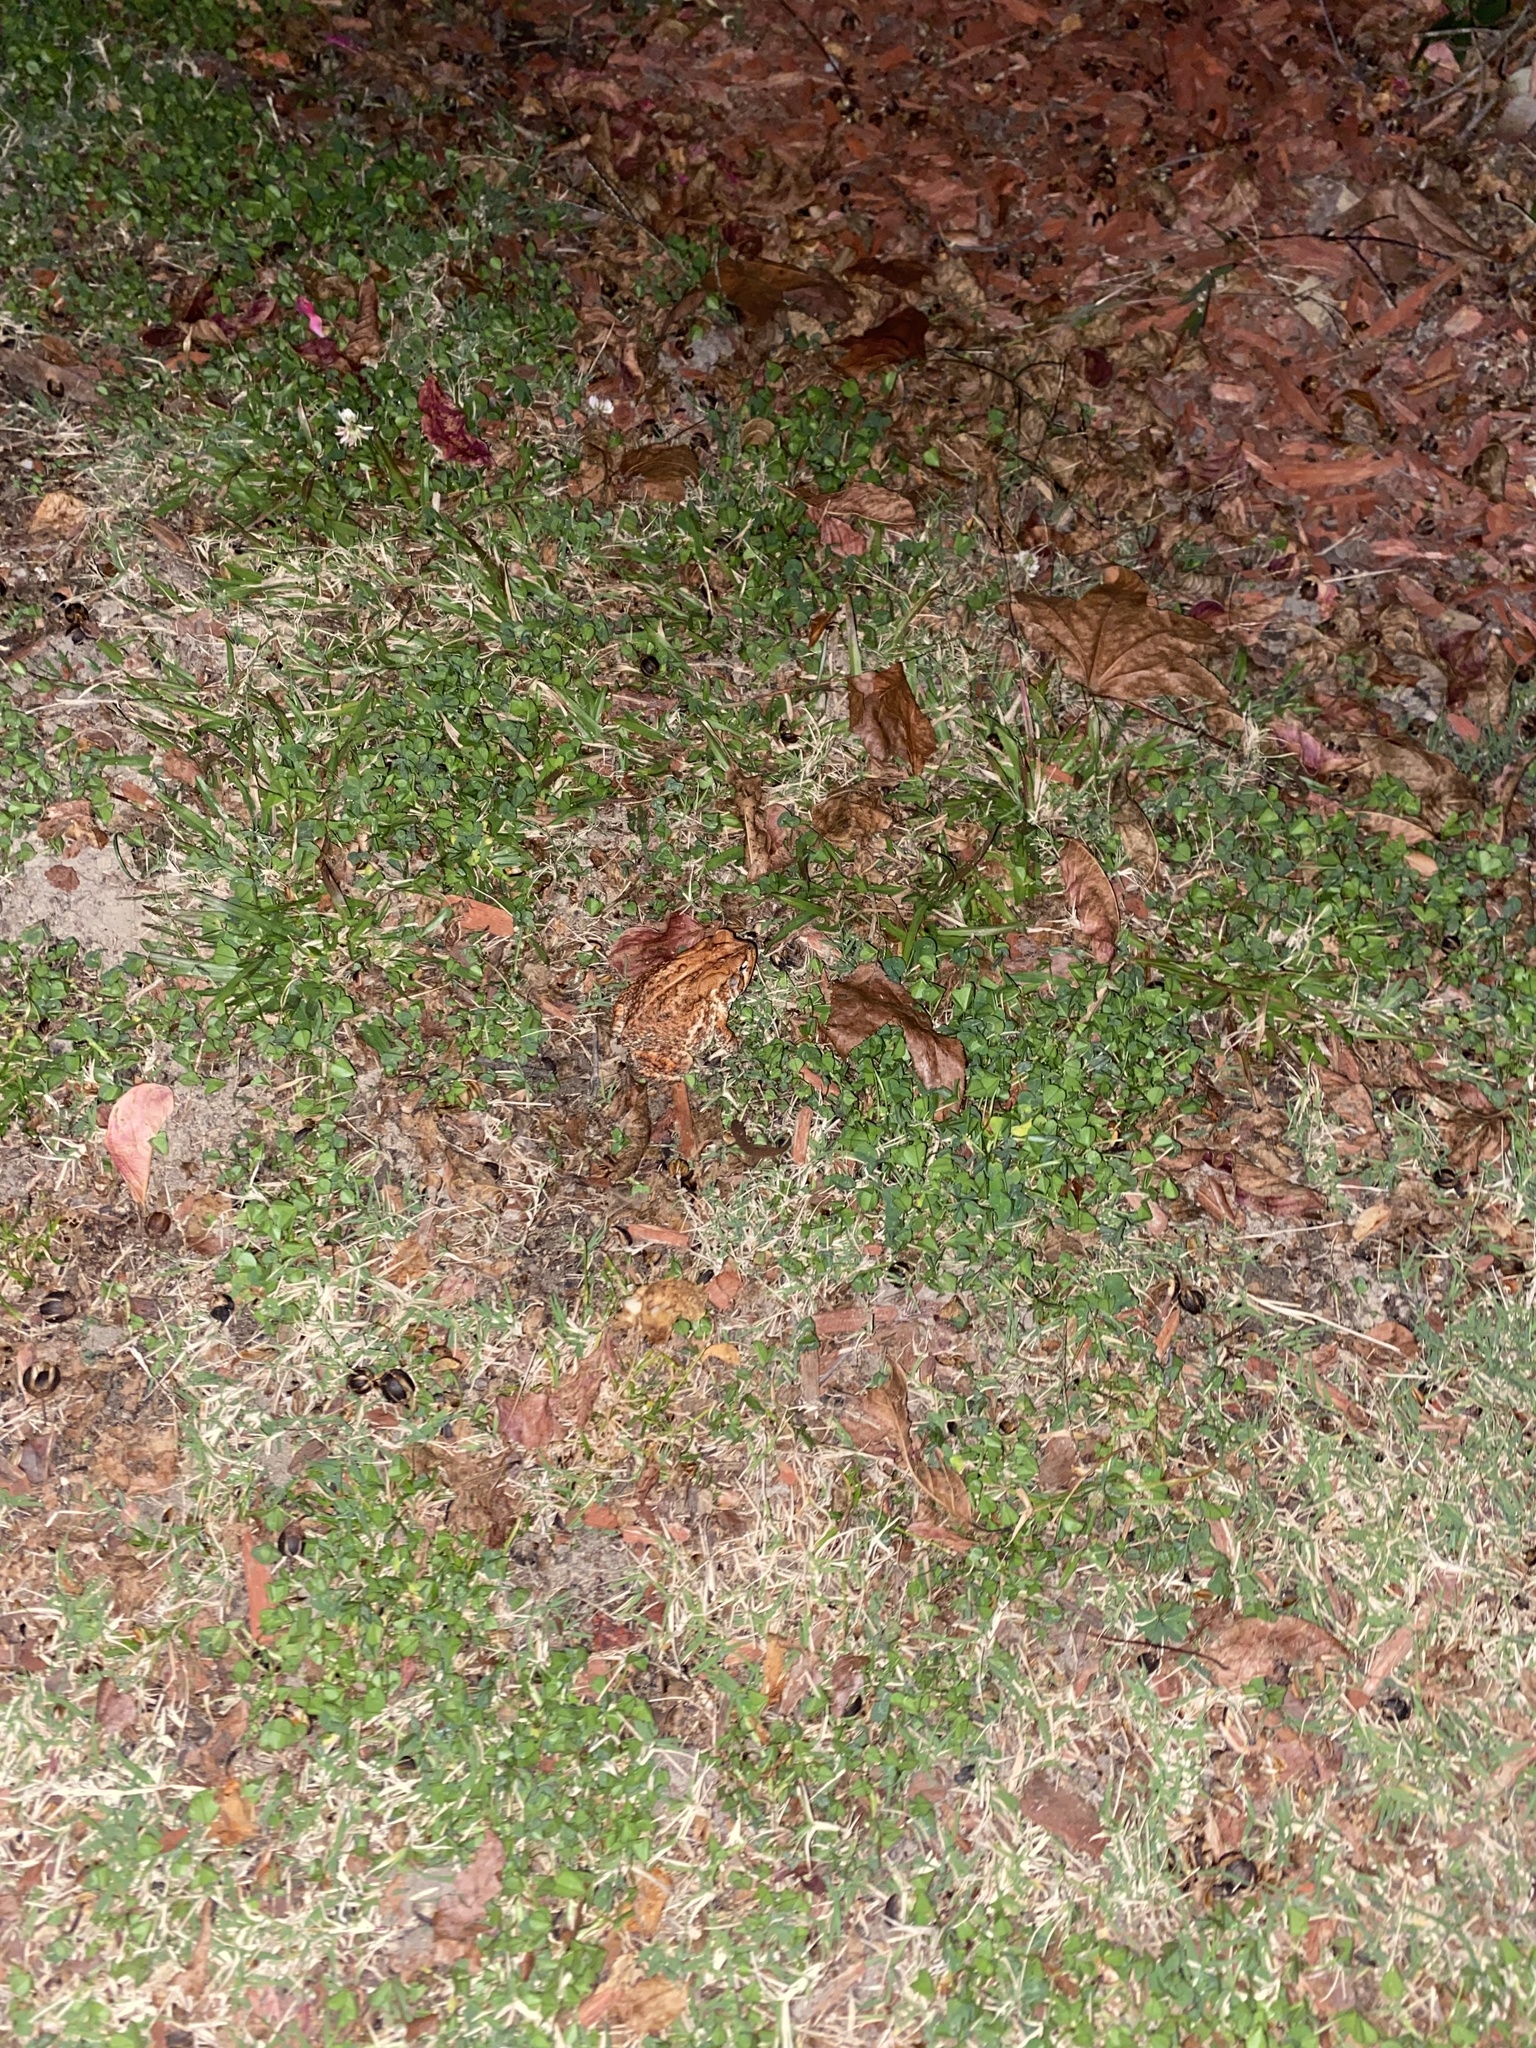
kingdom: Animalia
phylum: Chordata
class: Amphibia
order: Anura
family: Bufonidae
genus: Anaxyrus
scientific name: Anaxyrus terrestris
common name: Southern toad
